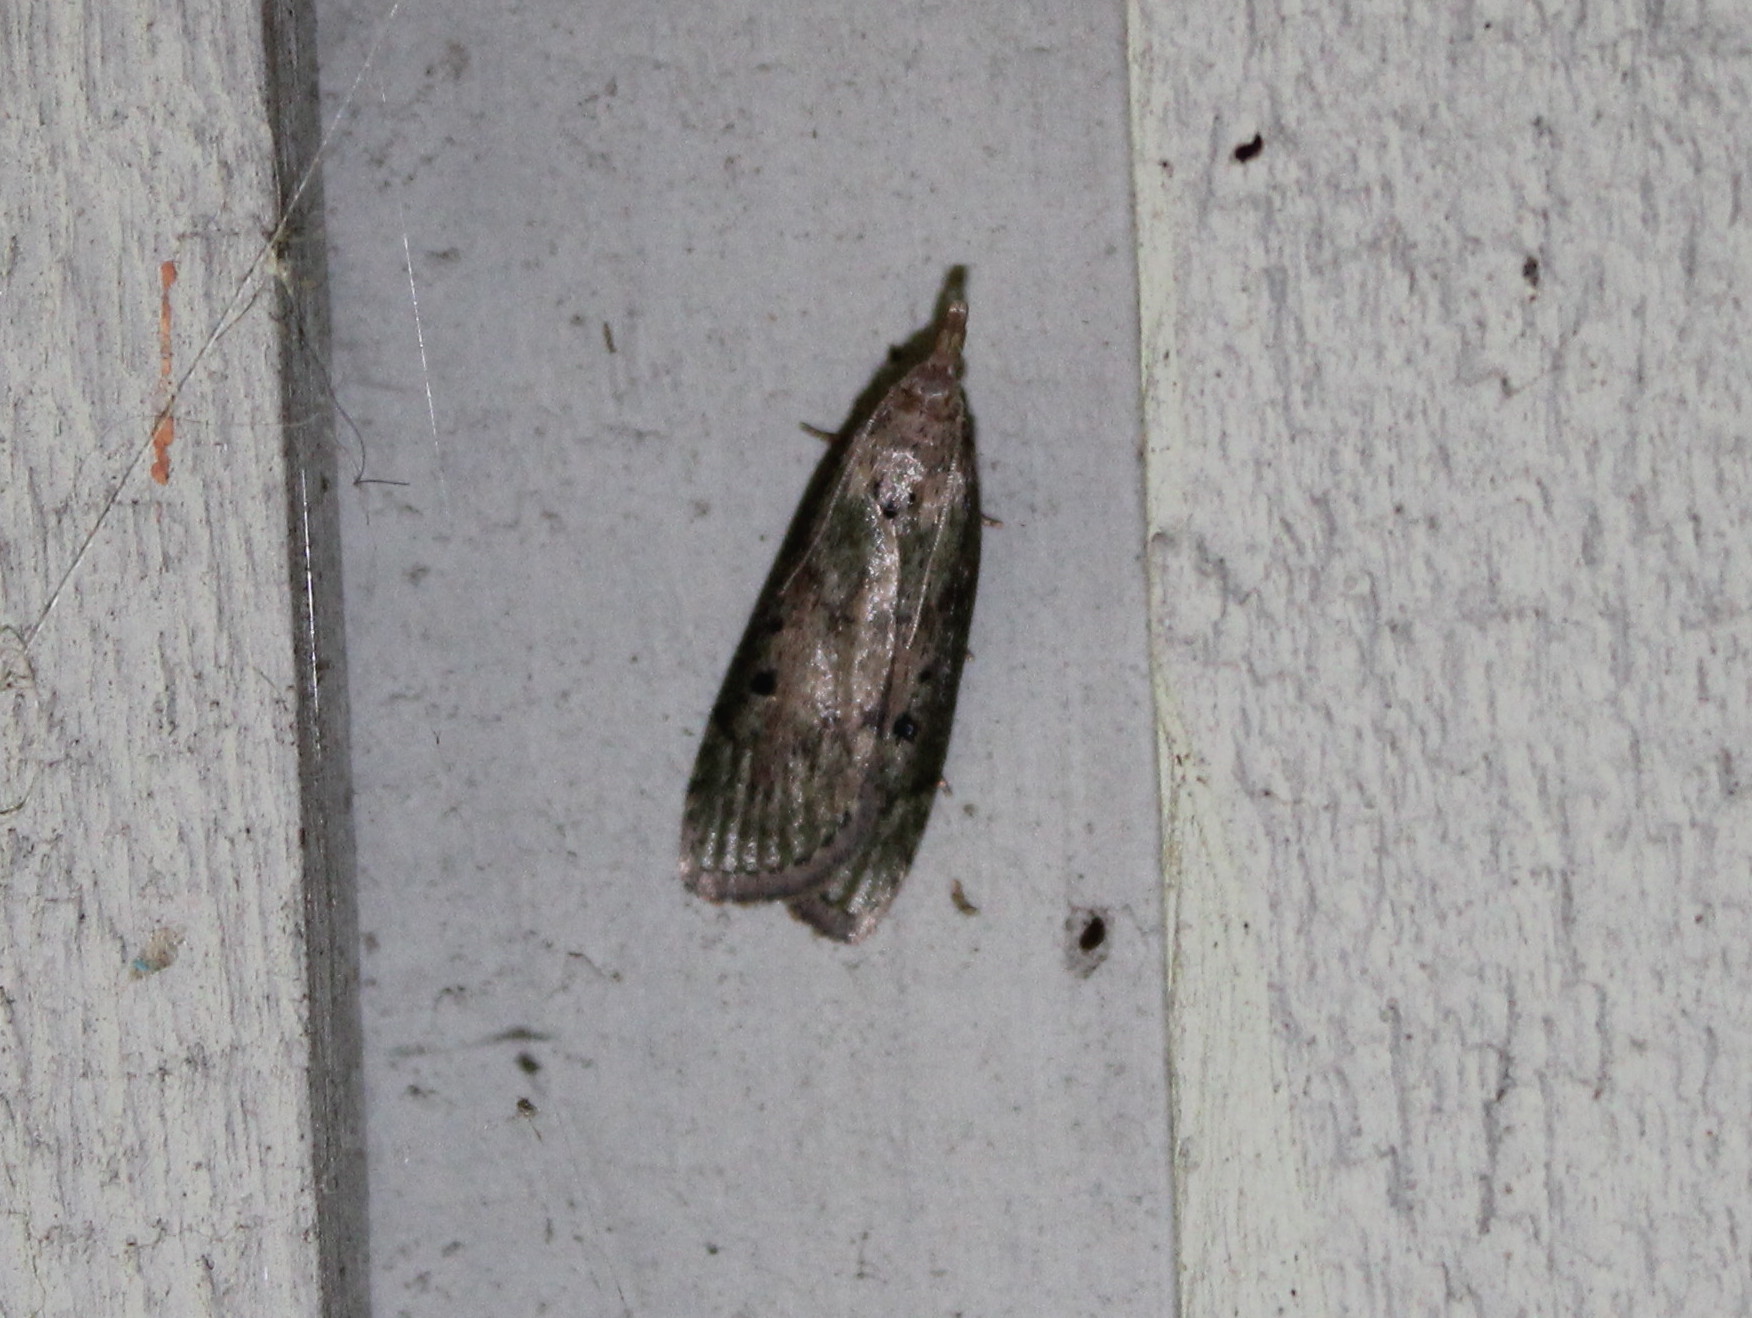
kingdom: Animalia
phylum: Arthropoda
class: Insecta
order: Lepidoptera
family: Pyralidae
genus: Aphomia
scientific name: Aphomia sociella
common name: Bee moth
